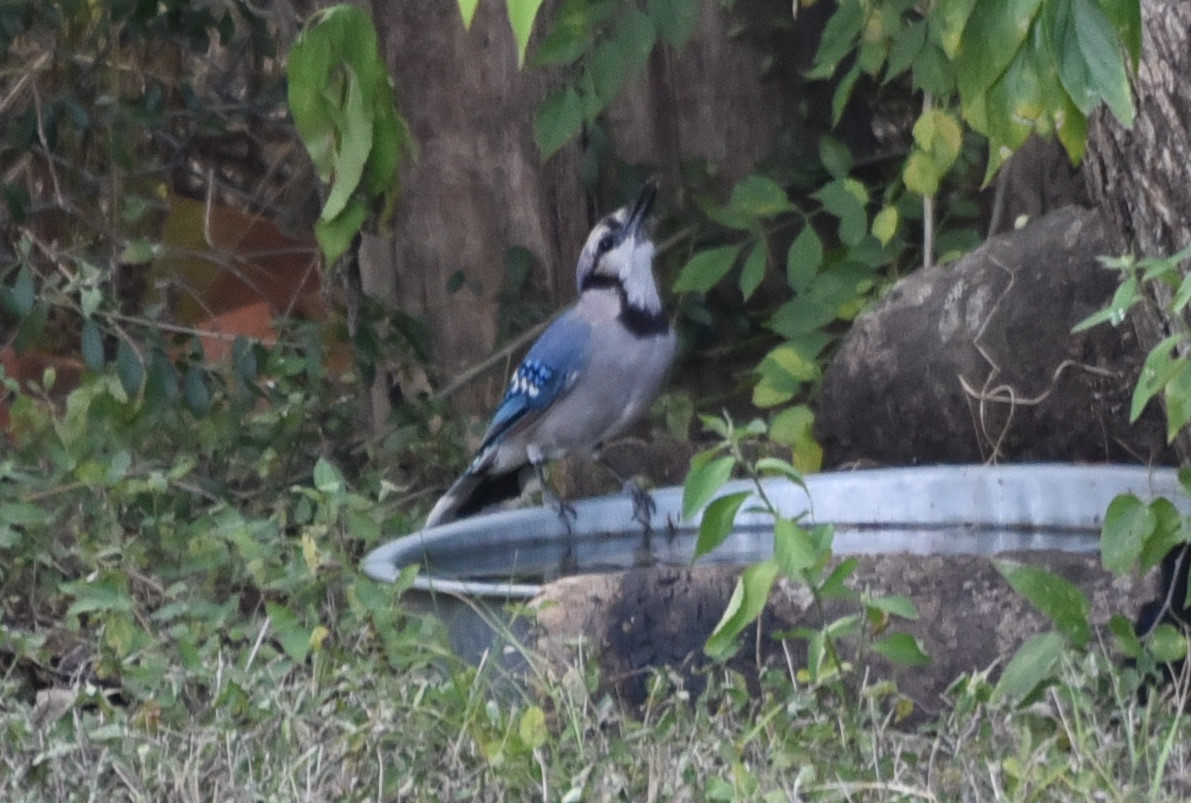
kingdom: Animalia
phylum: Chordata
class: Aves
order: Passeriformes
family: Corvidae
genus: Cyanocitta
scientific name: Cyanocitta cristata
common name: Blue jay
